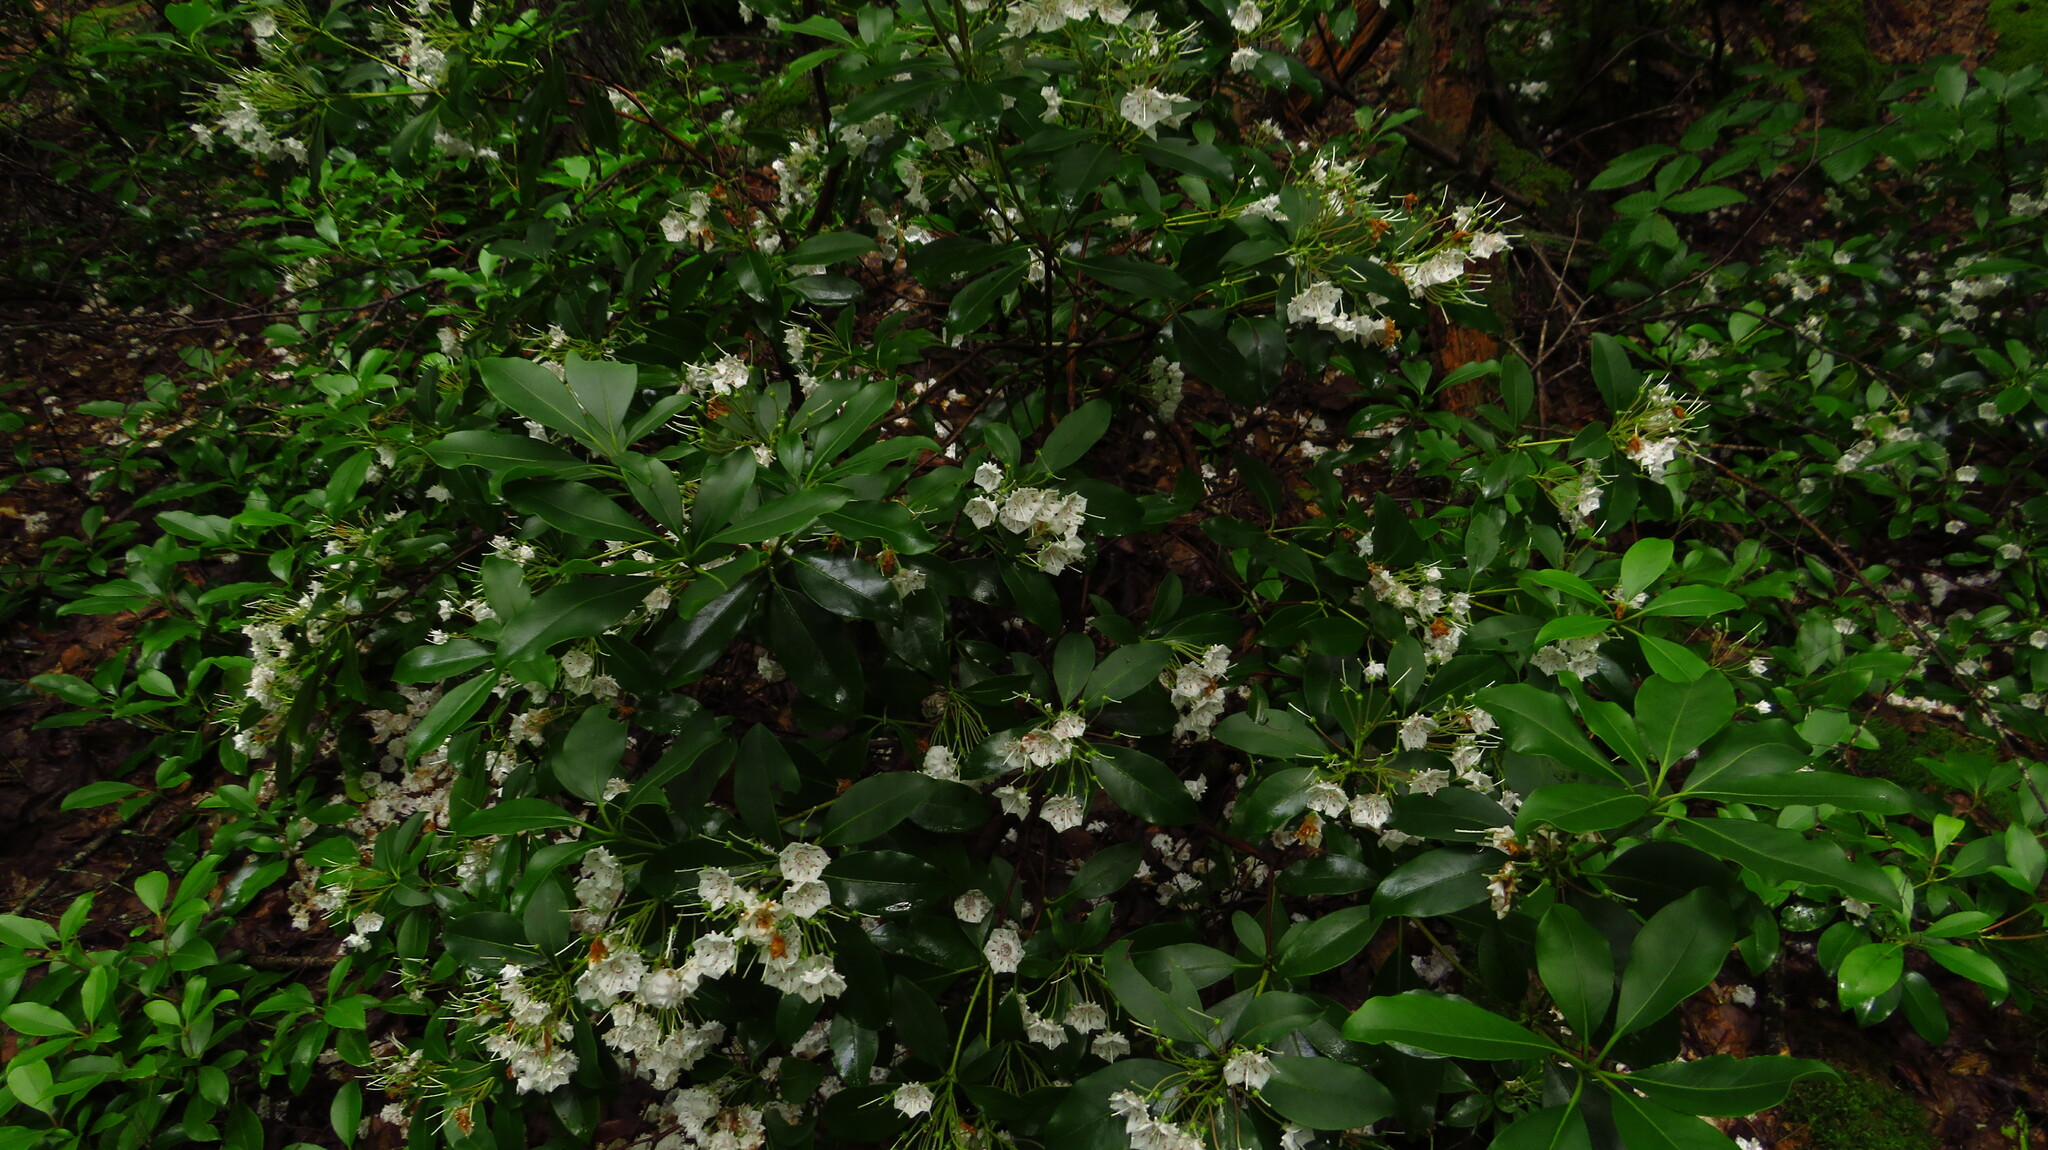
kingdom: Plantae
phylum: Tracheophyta
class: Magnoliopsida
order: Ericales
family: Ericaceae
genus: Kalmia
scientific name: Kalmia latifolia
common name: Mountain-laurel
